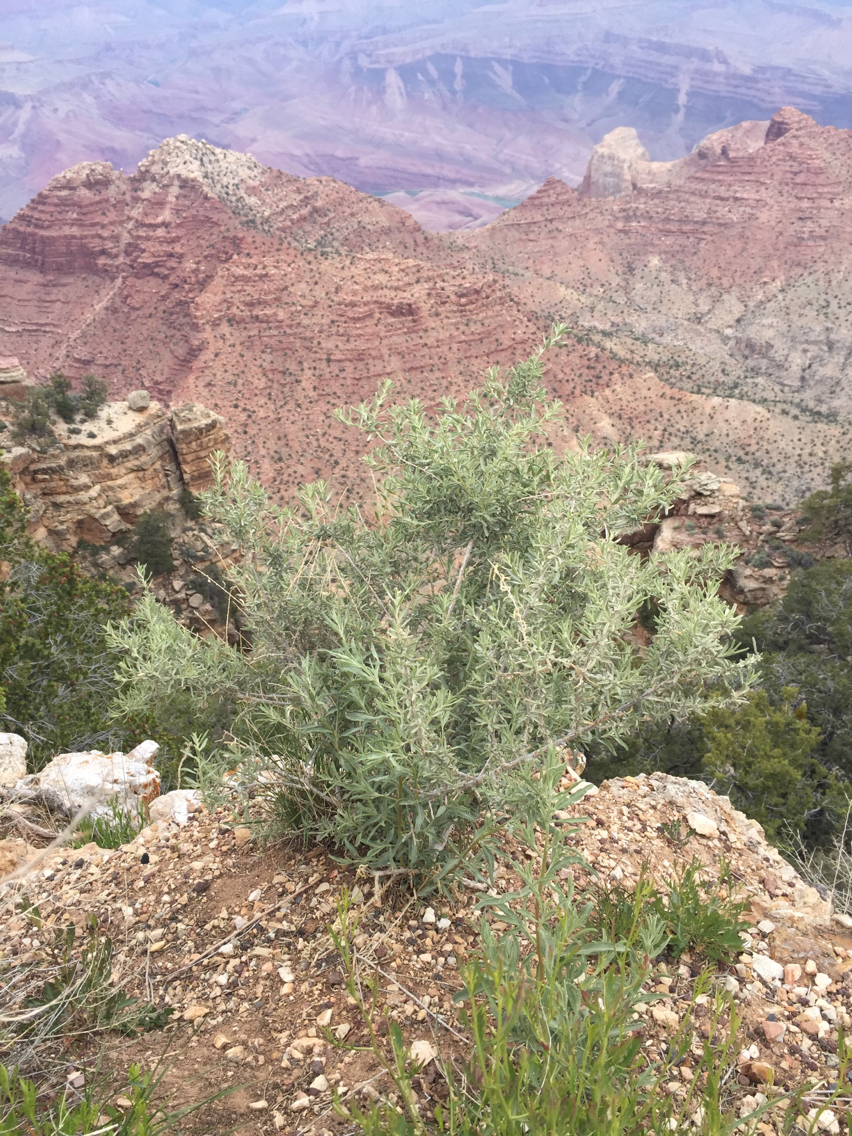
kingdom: Plantae
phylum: Tracheophyta
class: Magnoliopsida
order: Caryophyllales
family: Amaranthaceae
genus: Atriplex
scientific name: Atriplex canescens
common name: Four-wing saltbush
